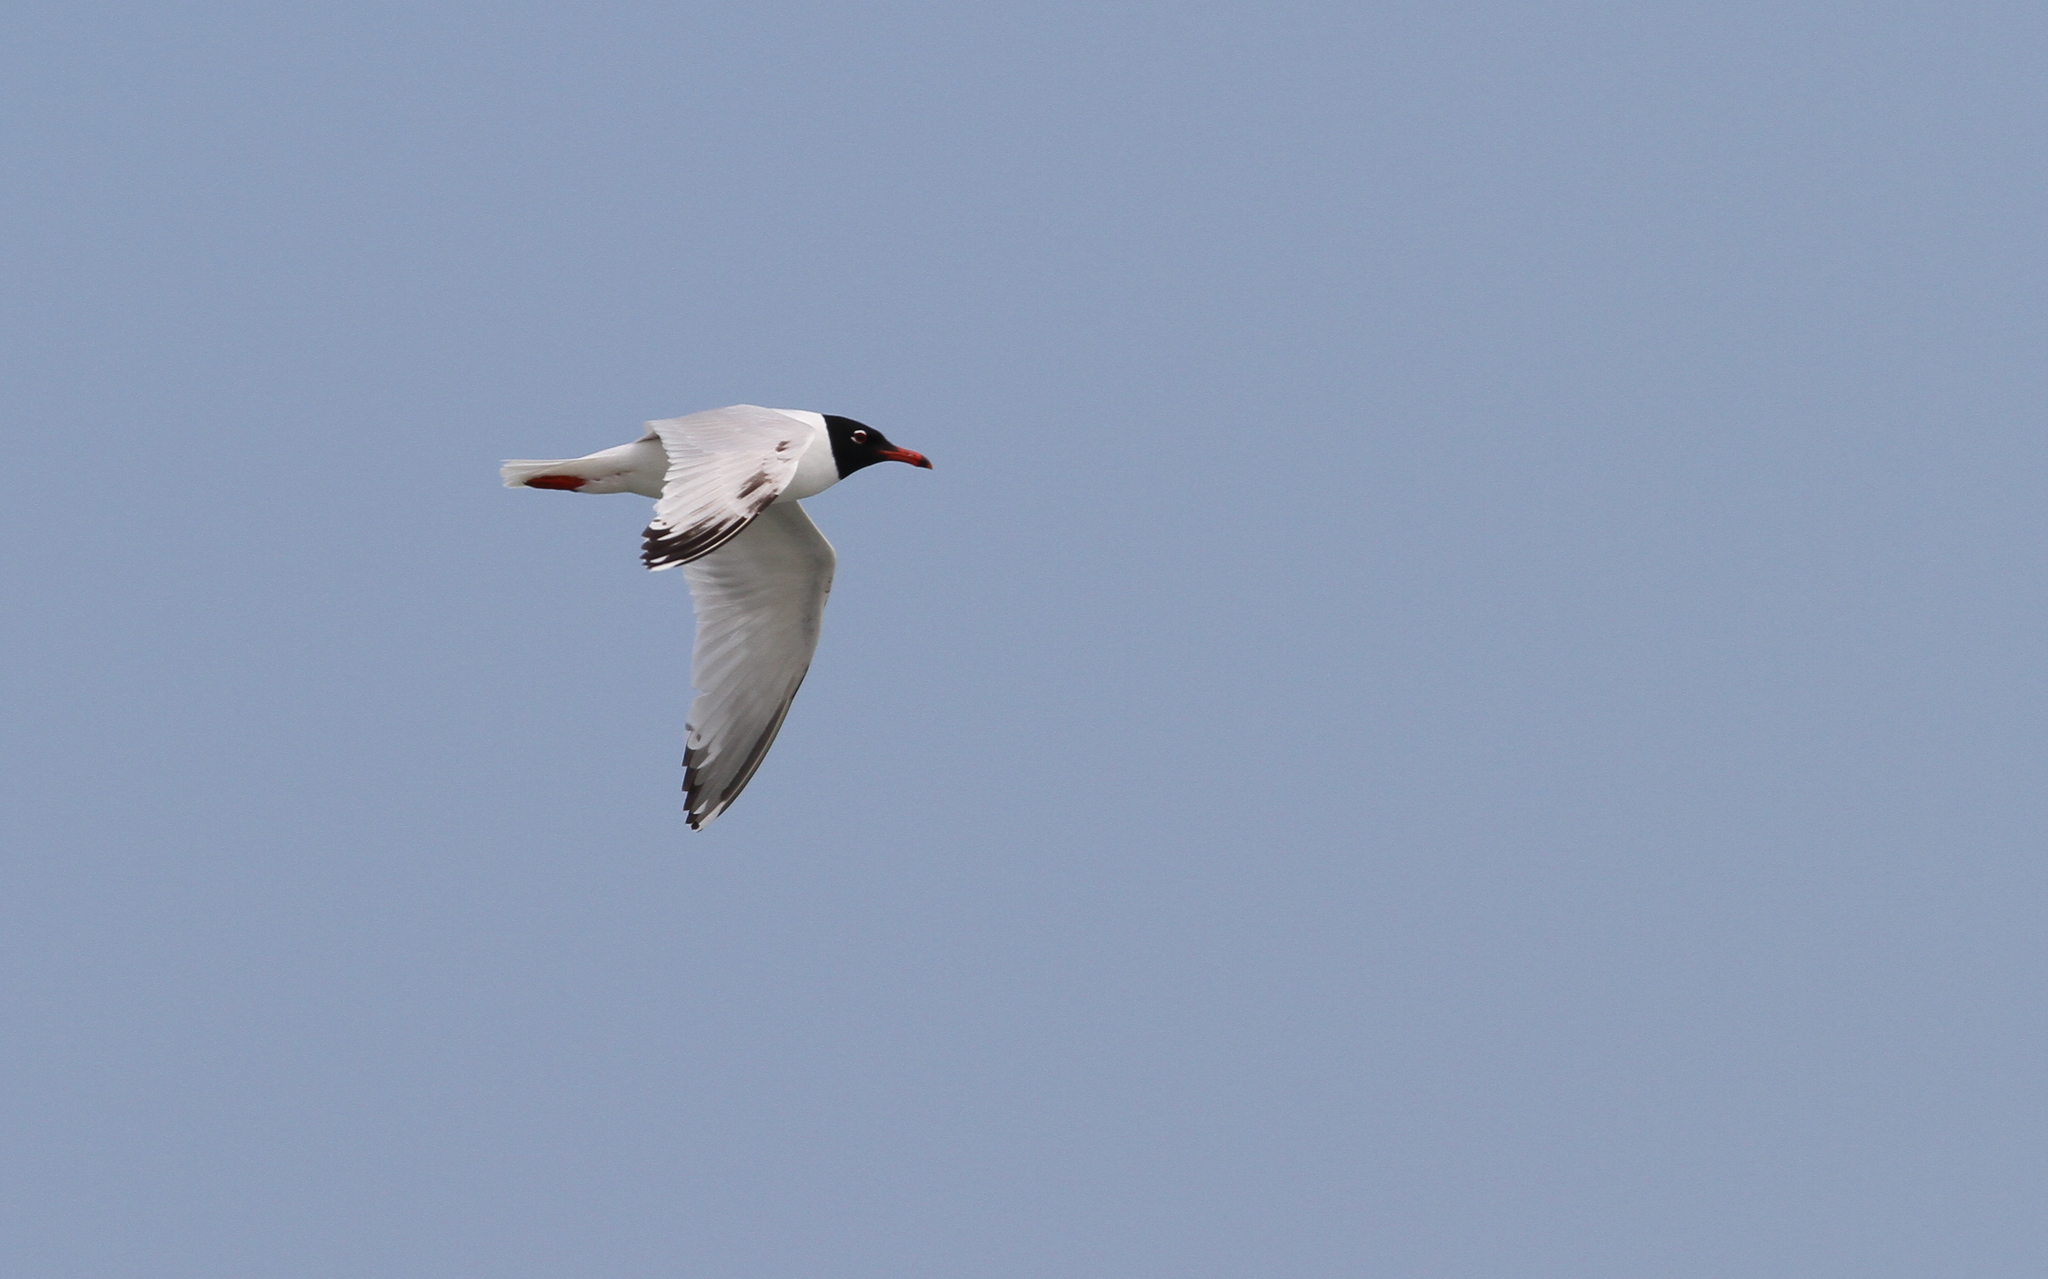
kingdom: Animalia
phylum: Chordata
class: Aves
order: Charadriiformes
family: Laridae
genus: Ichthyaetus
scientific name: Ichthyaetus melanocephalus
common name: Mediterranean gull
